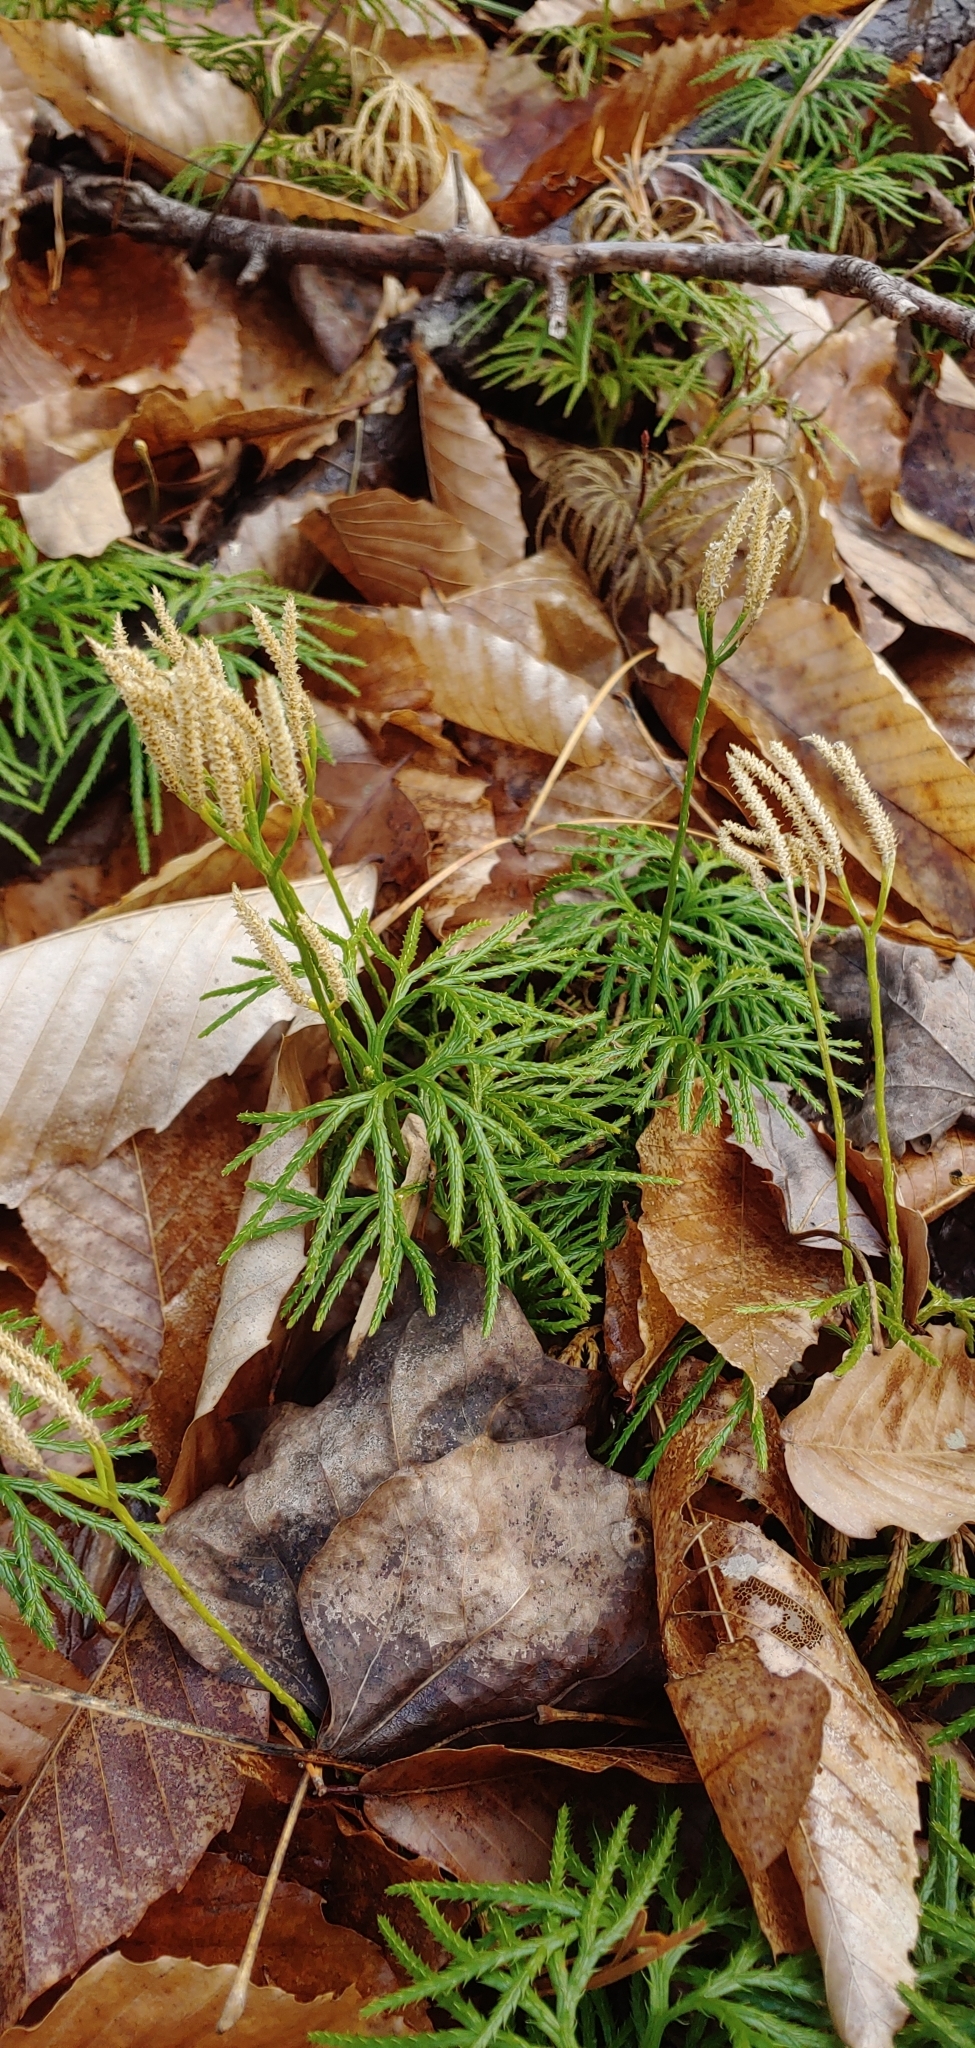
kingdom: Plantae
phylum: Tracheophyta
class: Lycopodiopsida
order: Lycopodiales
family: Lycopodiaceae
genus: Diphasiastrum
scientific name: Diphasiastrum digitatum
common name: Southern running-pine
